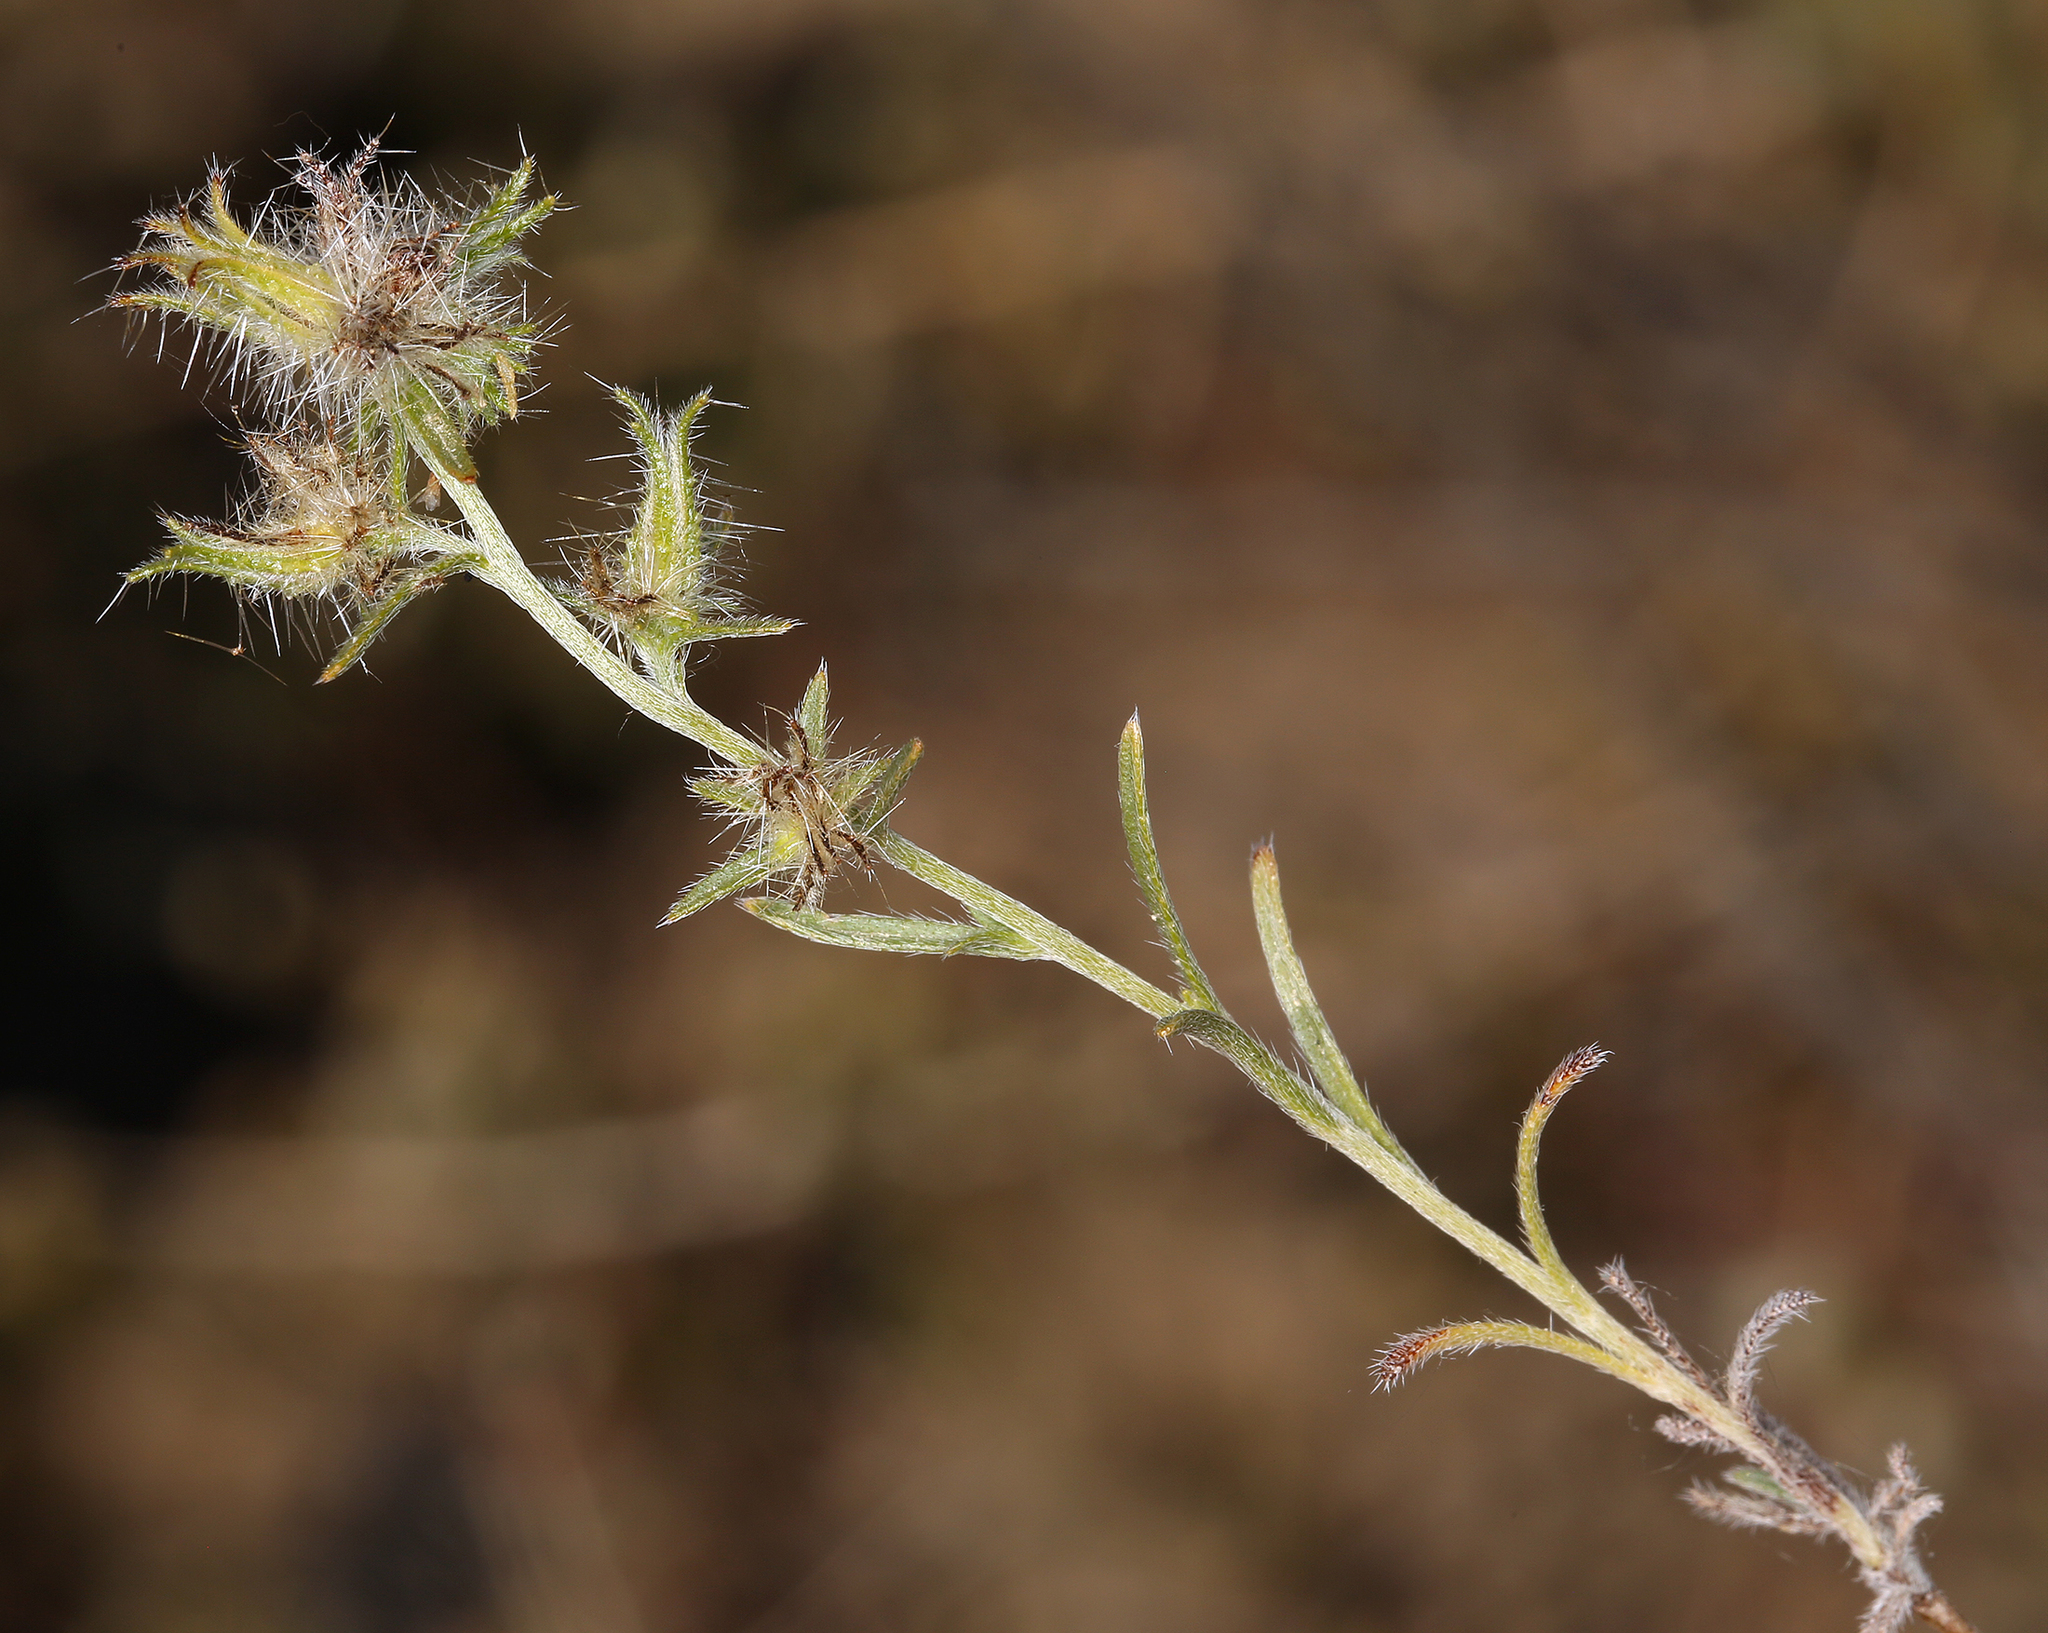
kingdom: Plantae
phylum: Tracheophyta
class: Magnoliopsida
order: Boraginales
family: Boraginaceae
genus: Cryptantha
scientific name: Cryptantha nevadensis
